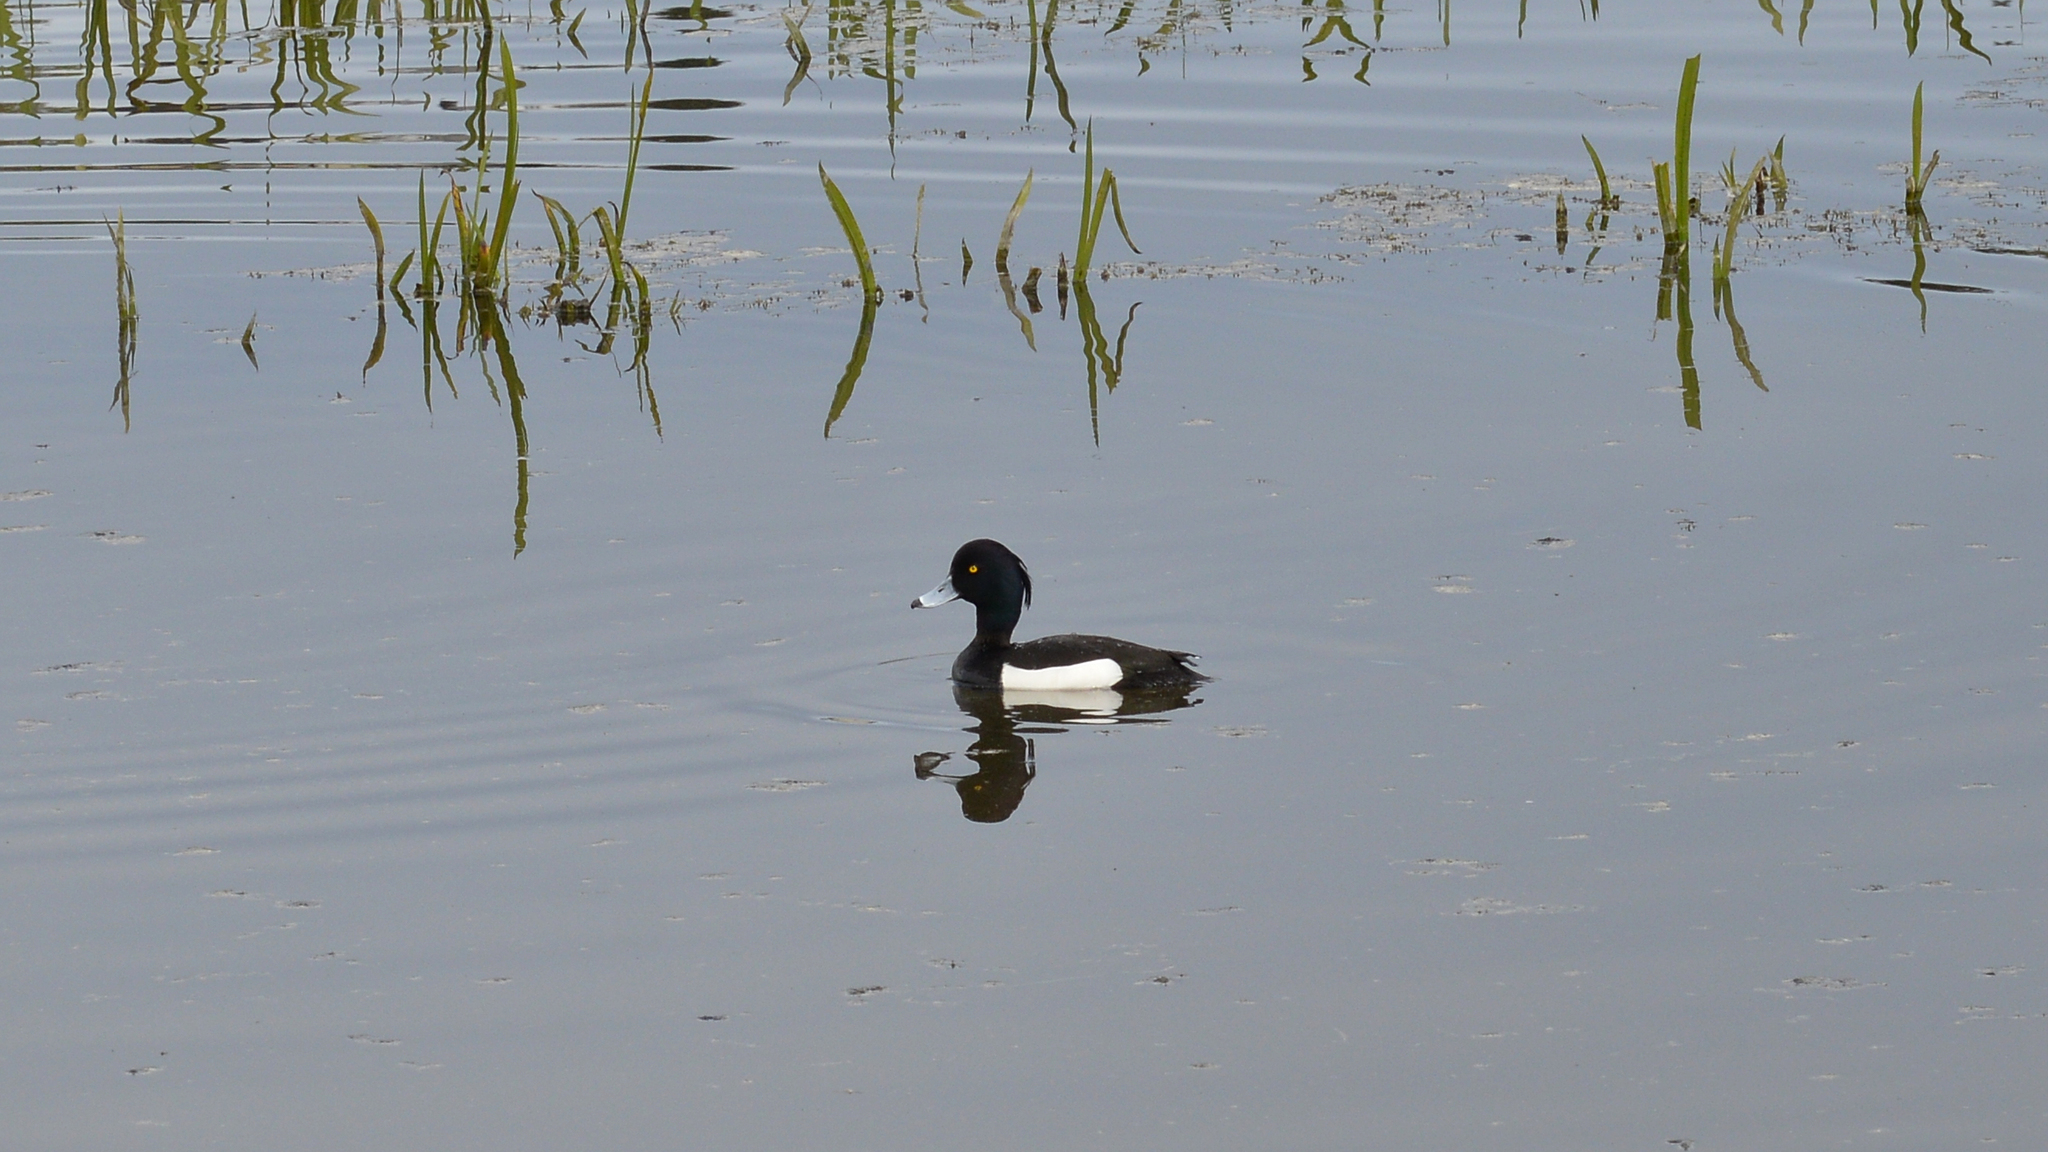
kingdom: Animalia
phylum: Chordata
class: Aves
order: Anseriformes
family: Anatidae
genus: Aythya
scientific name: Aythya fuligula
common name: Tufted duck
